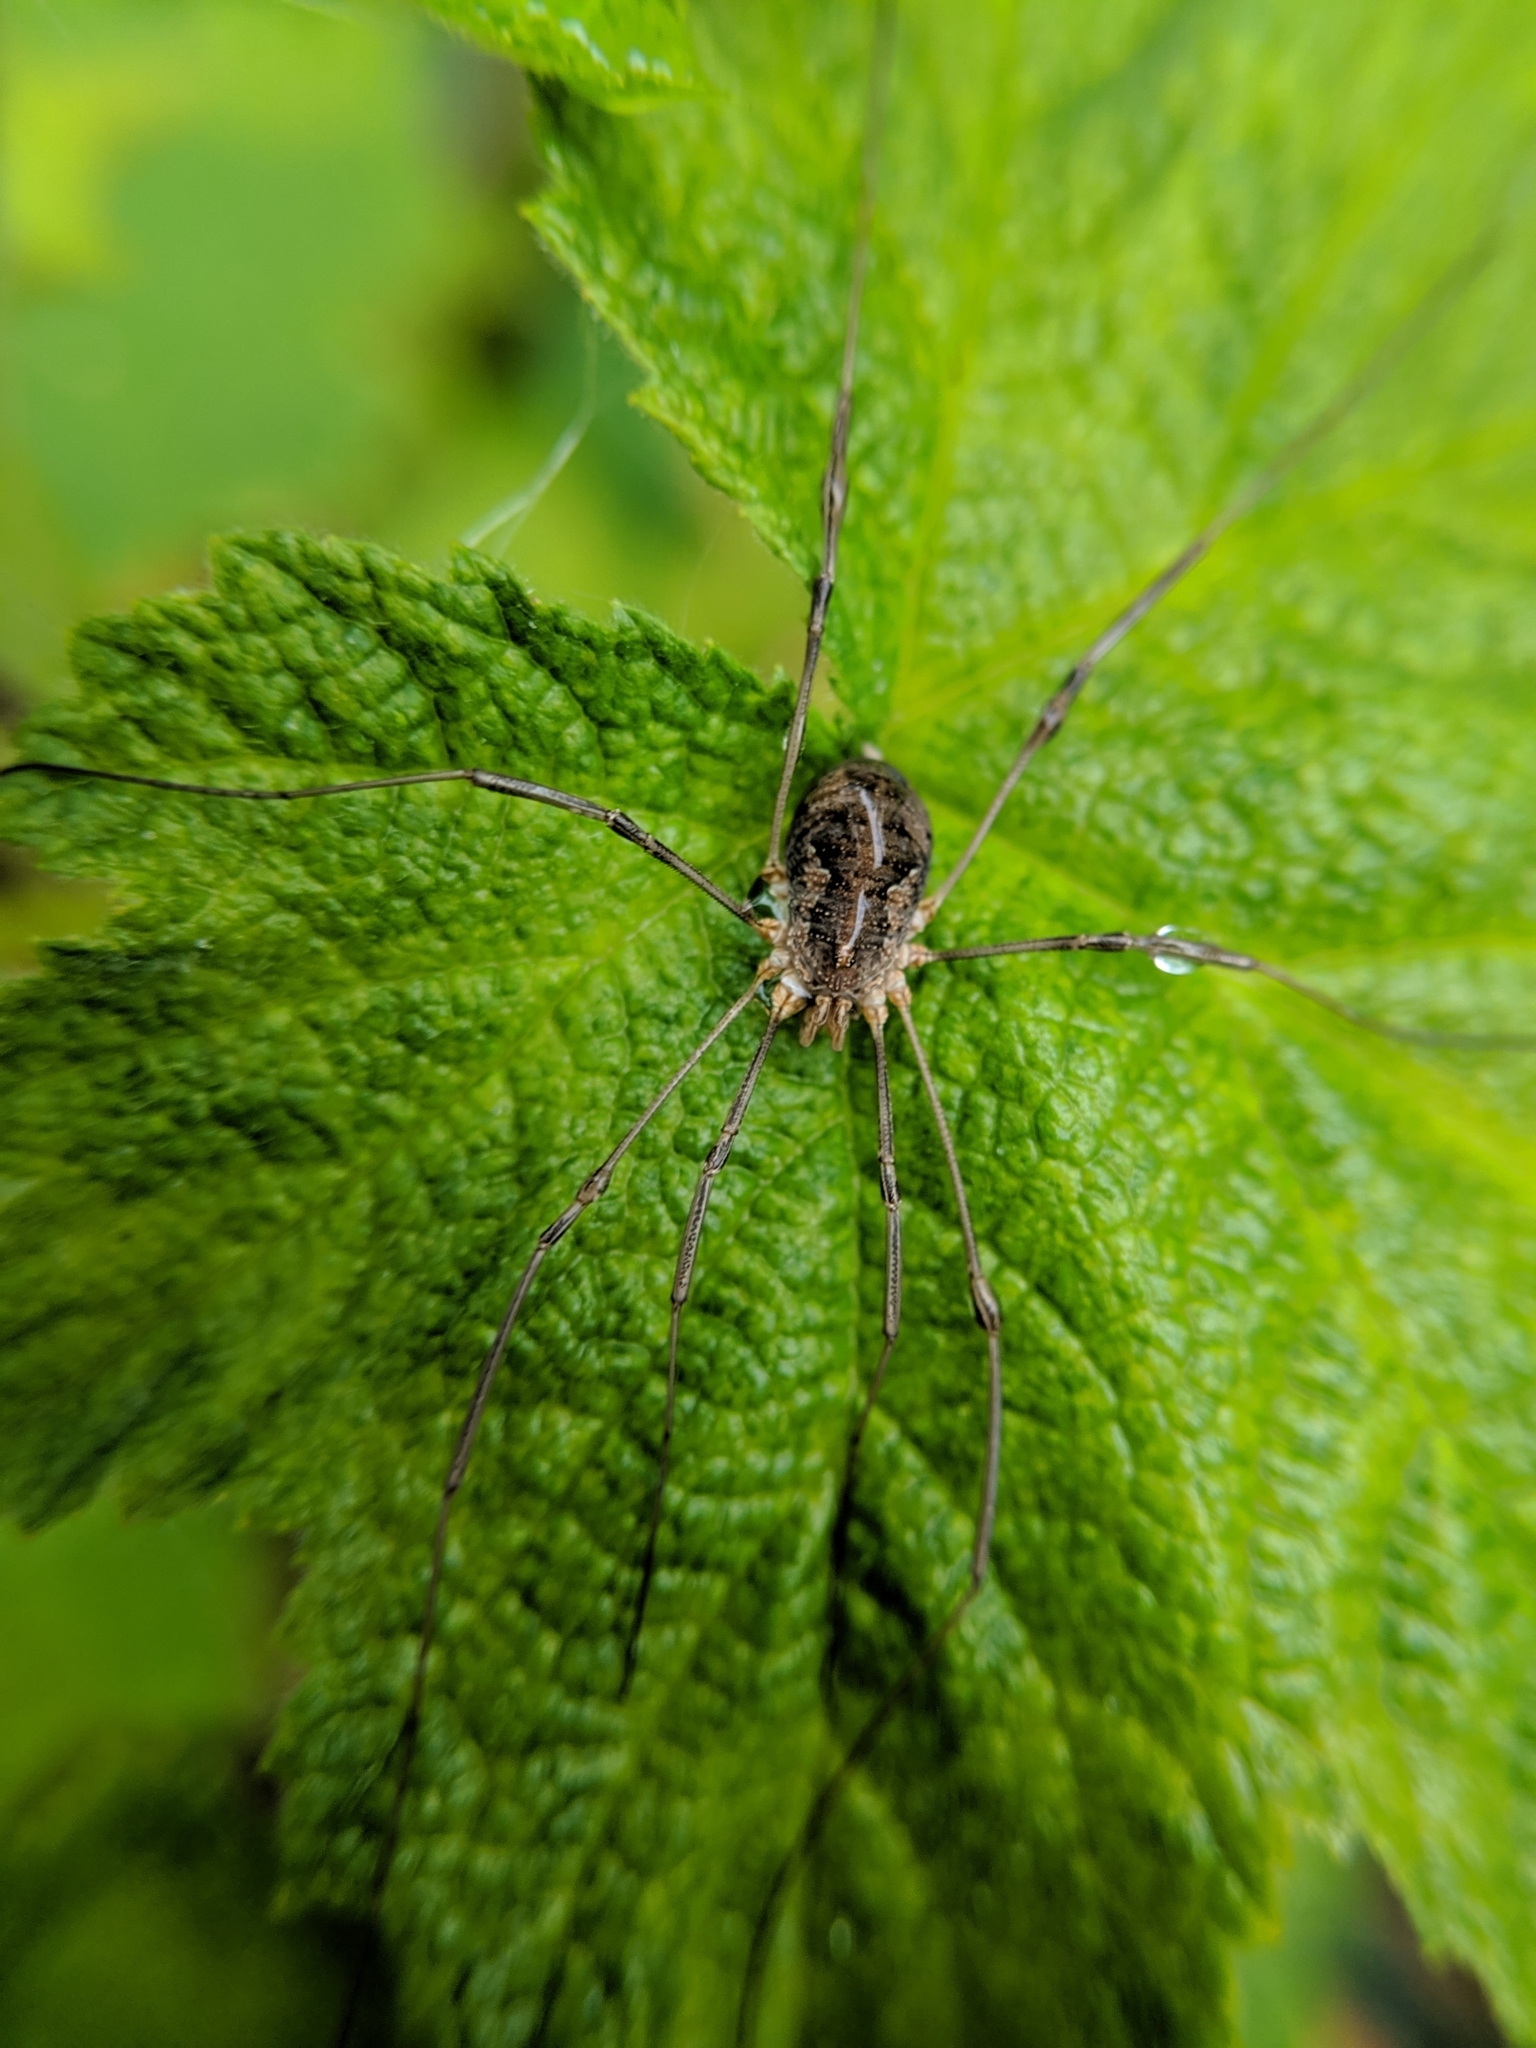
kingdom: Animalia
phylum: Arthropoda
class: Arachnida
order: Opiliones
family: Phalangiidae
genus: Phalangium
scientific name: Phalangium opilio
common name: Daddy longleg
